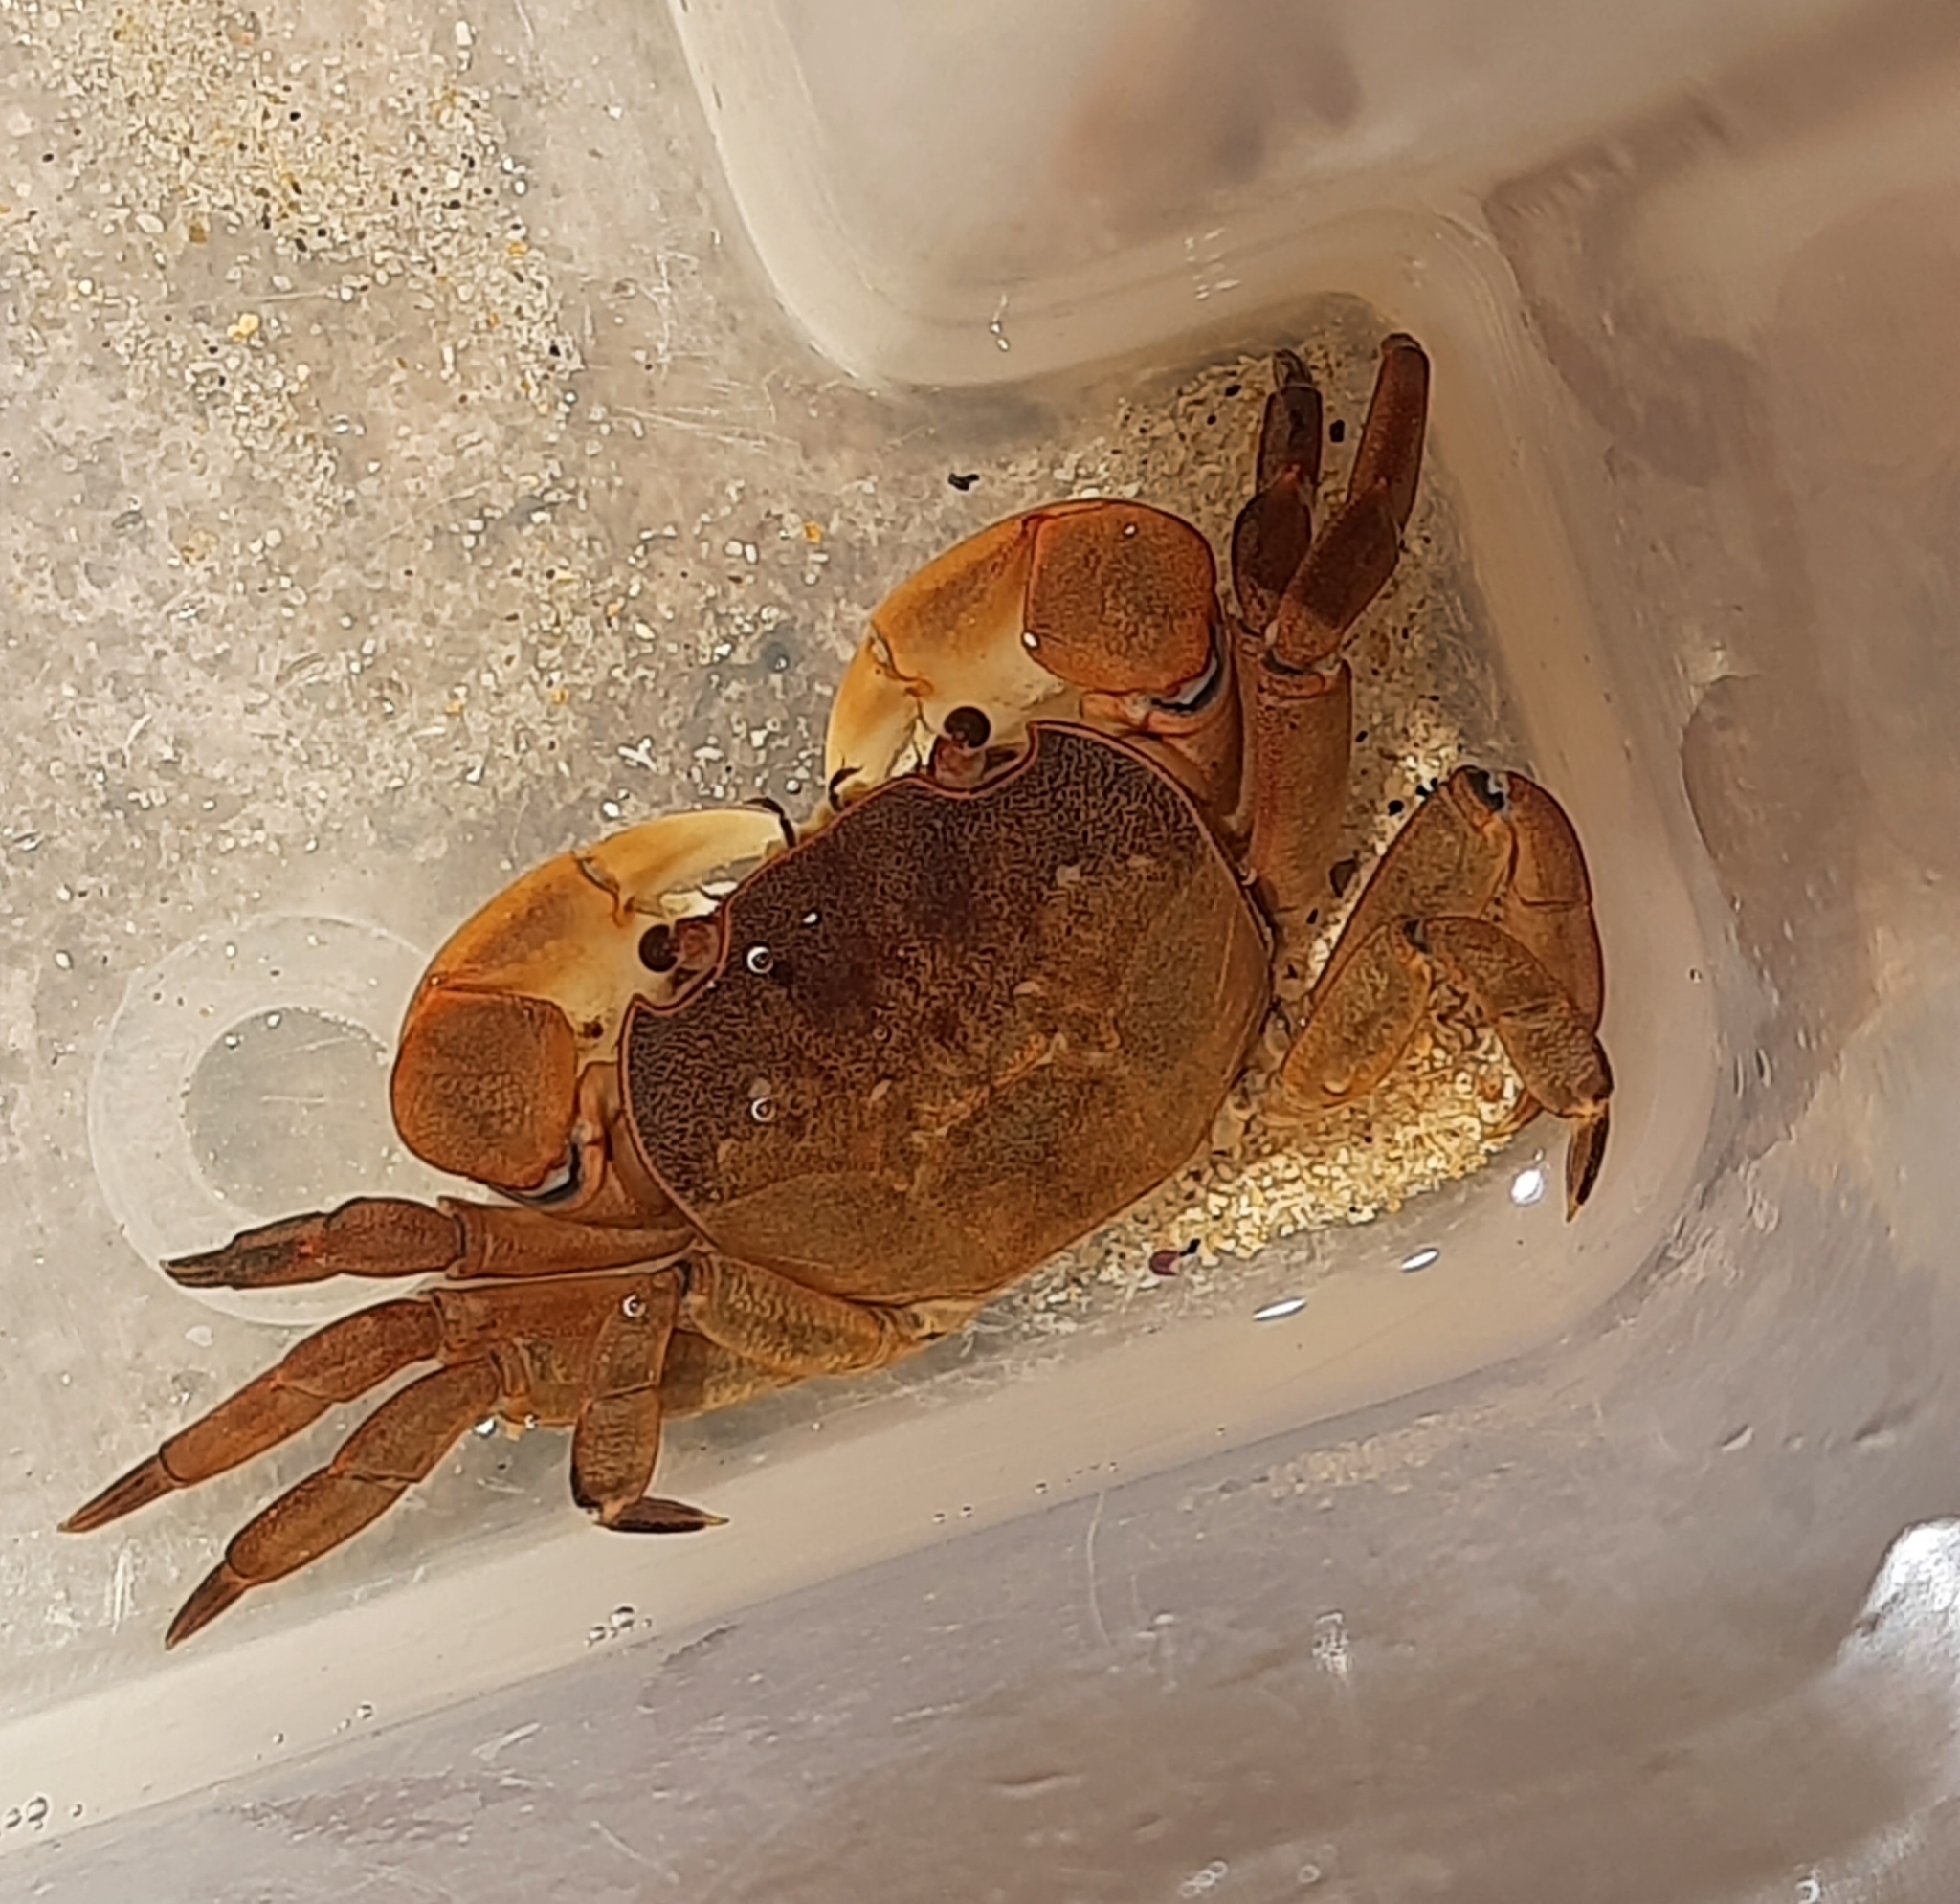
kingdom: Animalia
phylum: Arthropoda
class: Malacostraca
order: Decapoda
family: Varunidae
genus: Cyclograpsus
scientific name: Cyclograpsus audouinii
